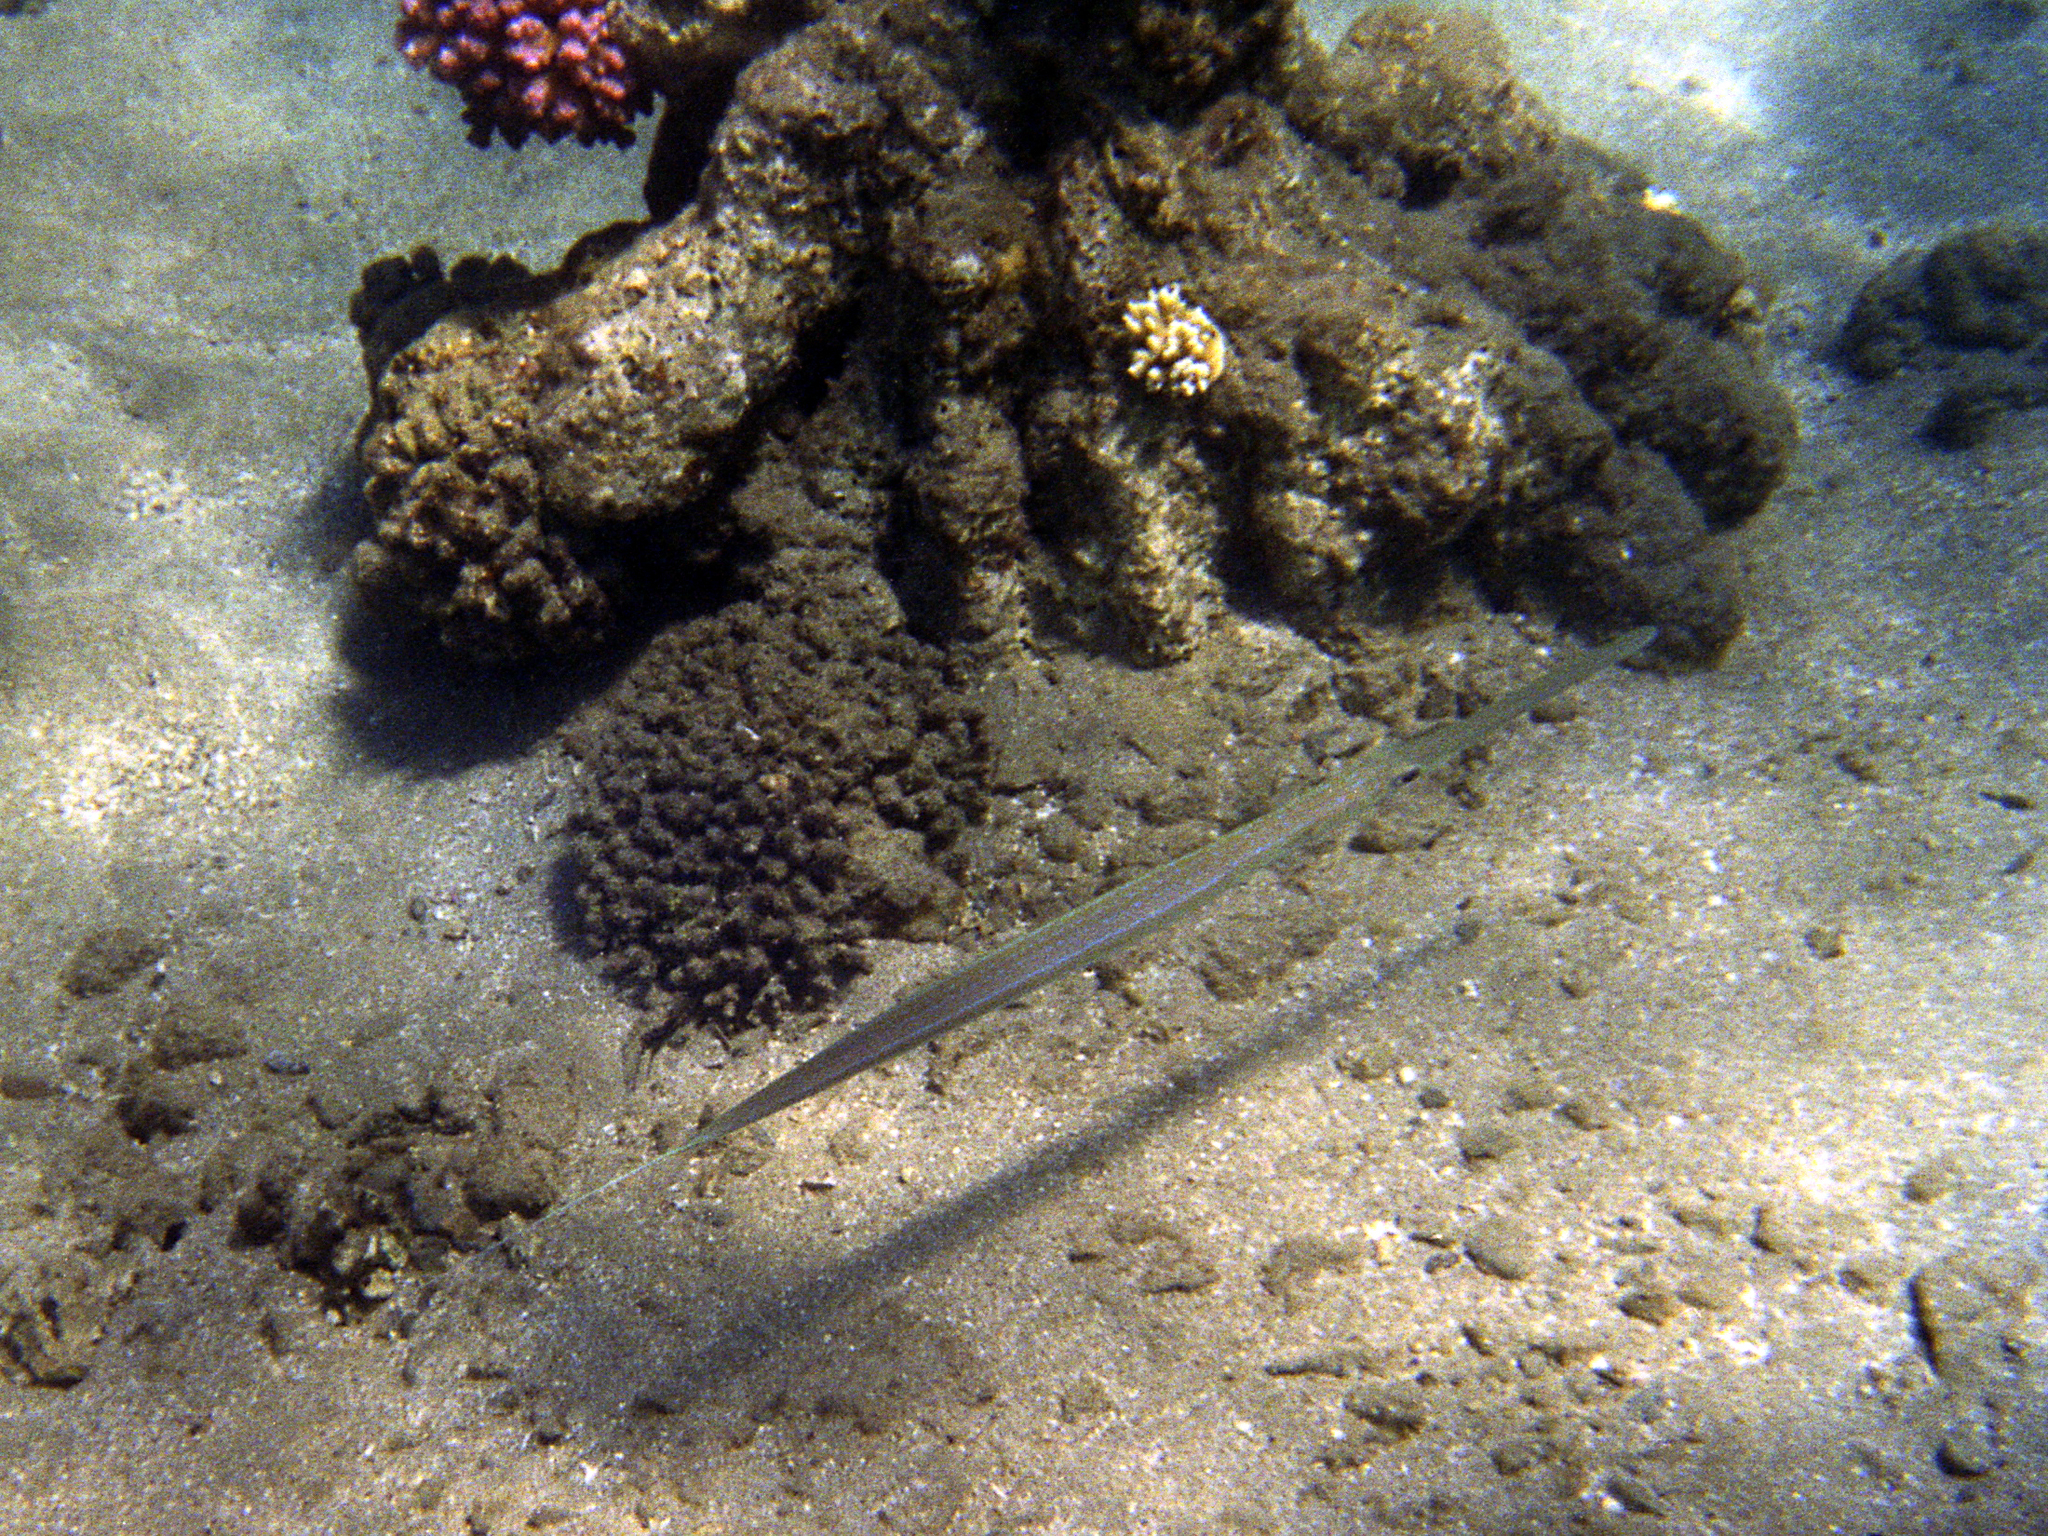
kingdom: Animalia
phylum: Chordata
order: Syngnathiformes
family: Fistulariidae
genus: Fistularia
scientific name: Fistularia commersonii
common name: Bluespotted cornetfish
